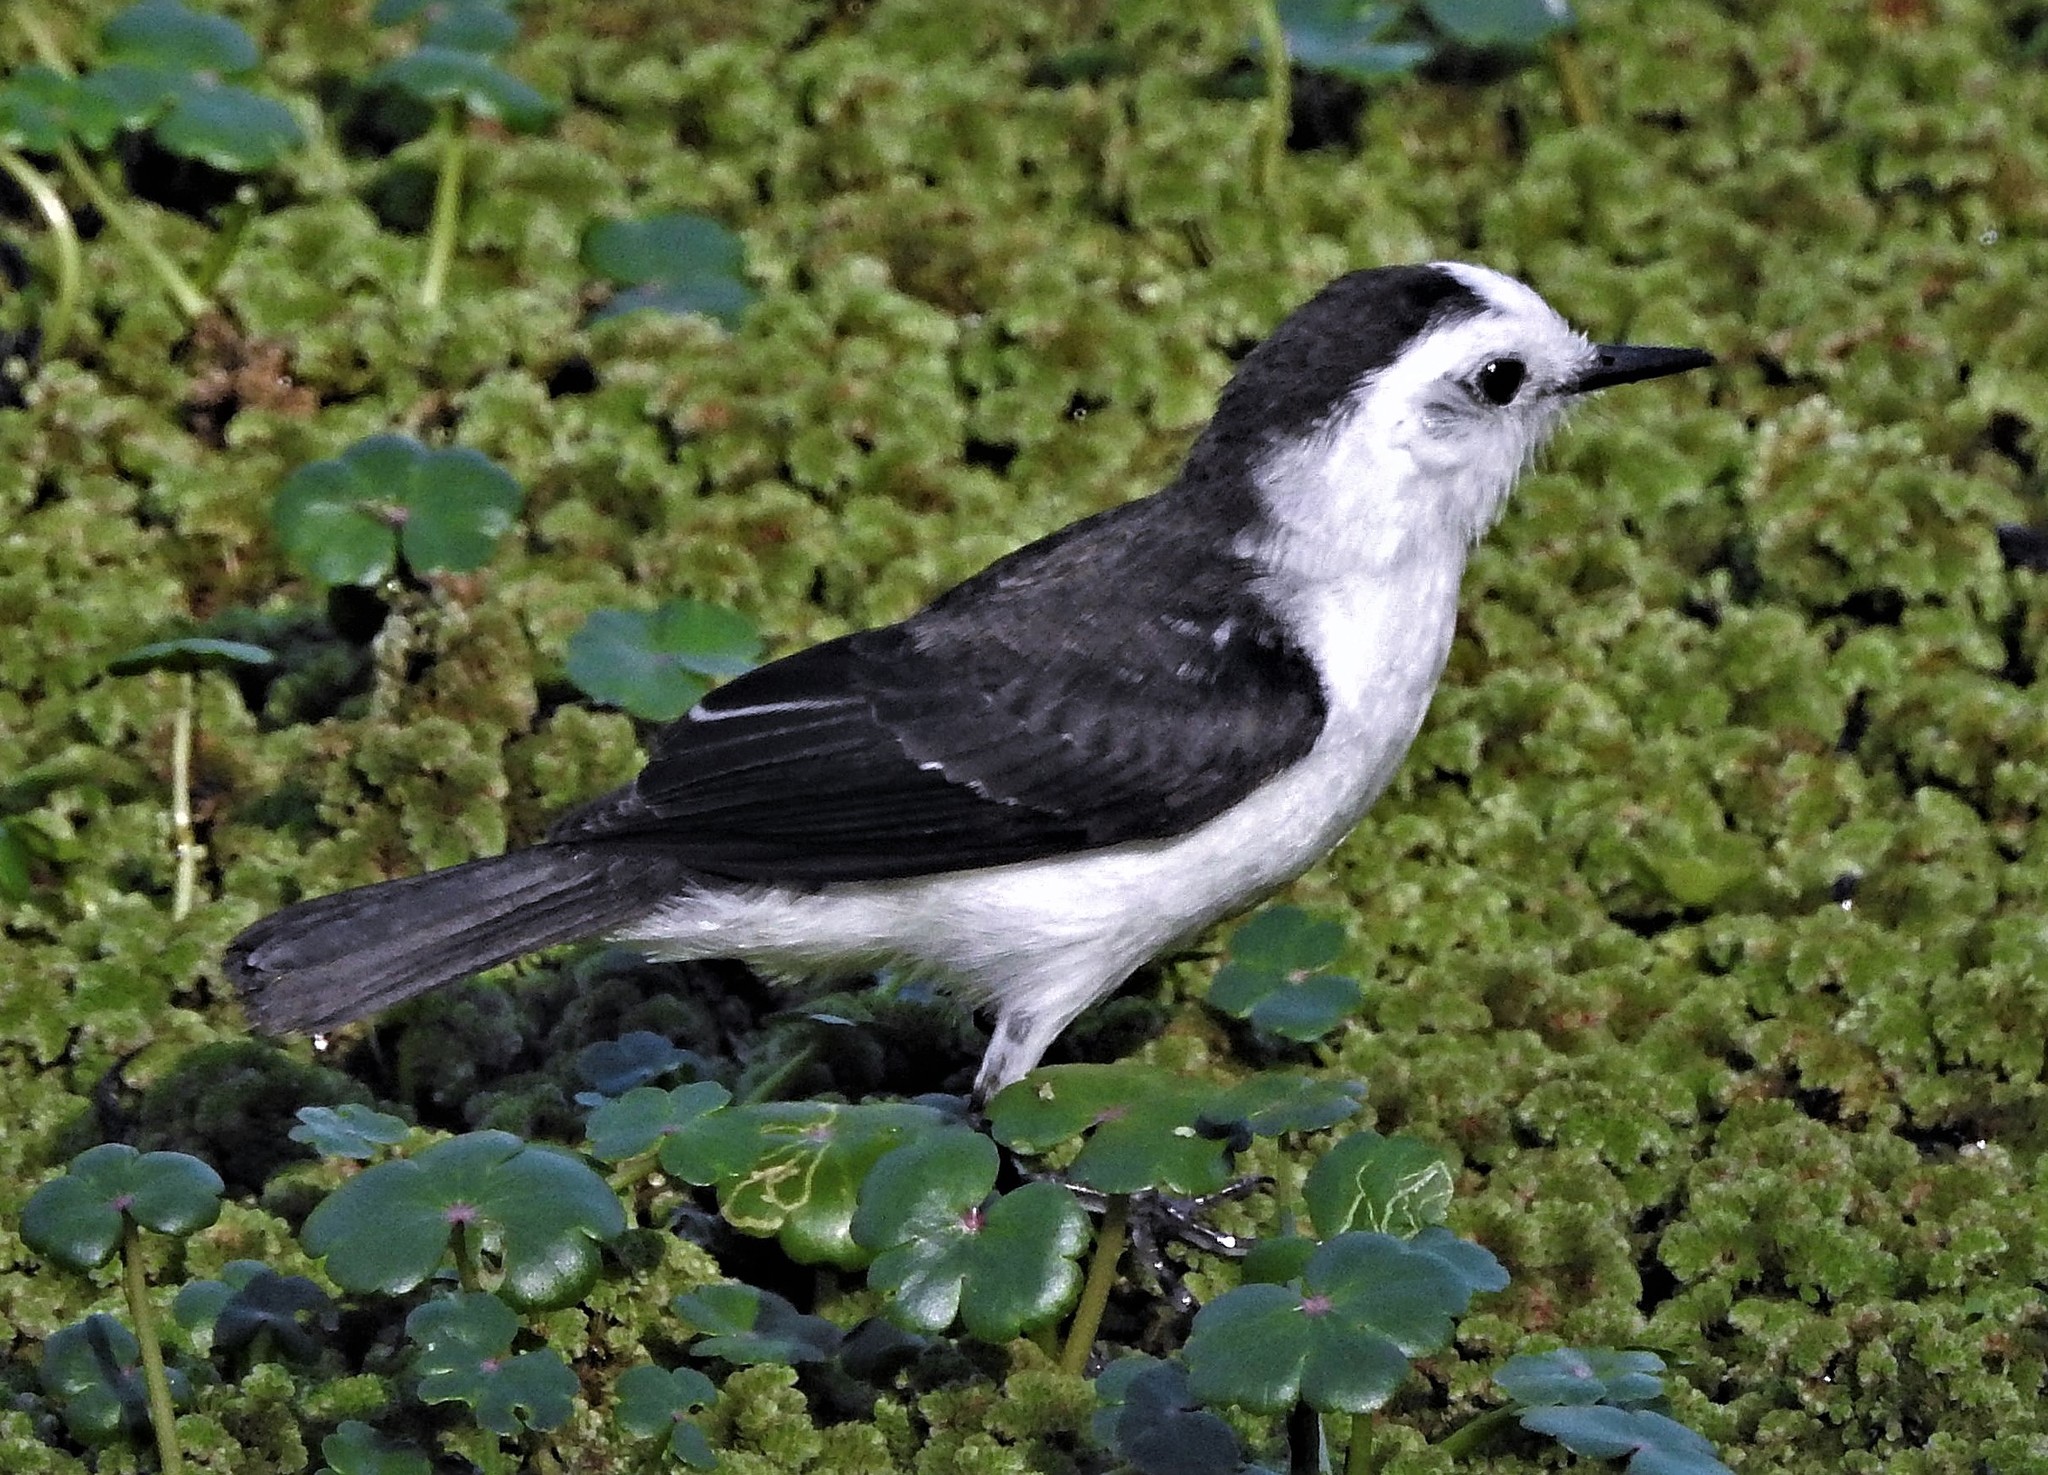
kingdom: Animalia
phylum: Chordata
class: Aves
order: Passeriformes
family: Tyrannidae
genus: Fluvicola
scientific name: Fluvicola pica
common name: Pied water-tyrant
